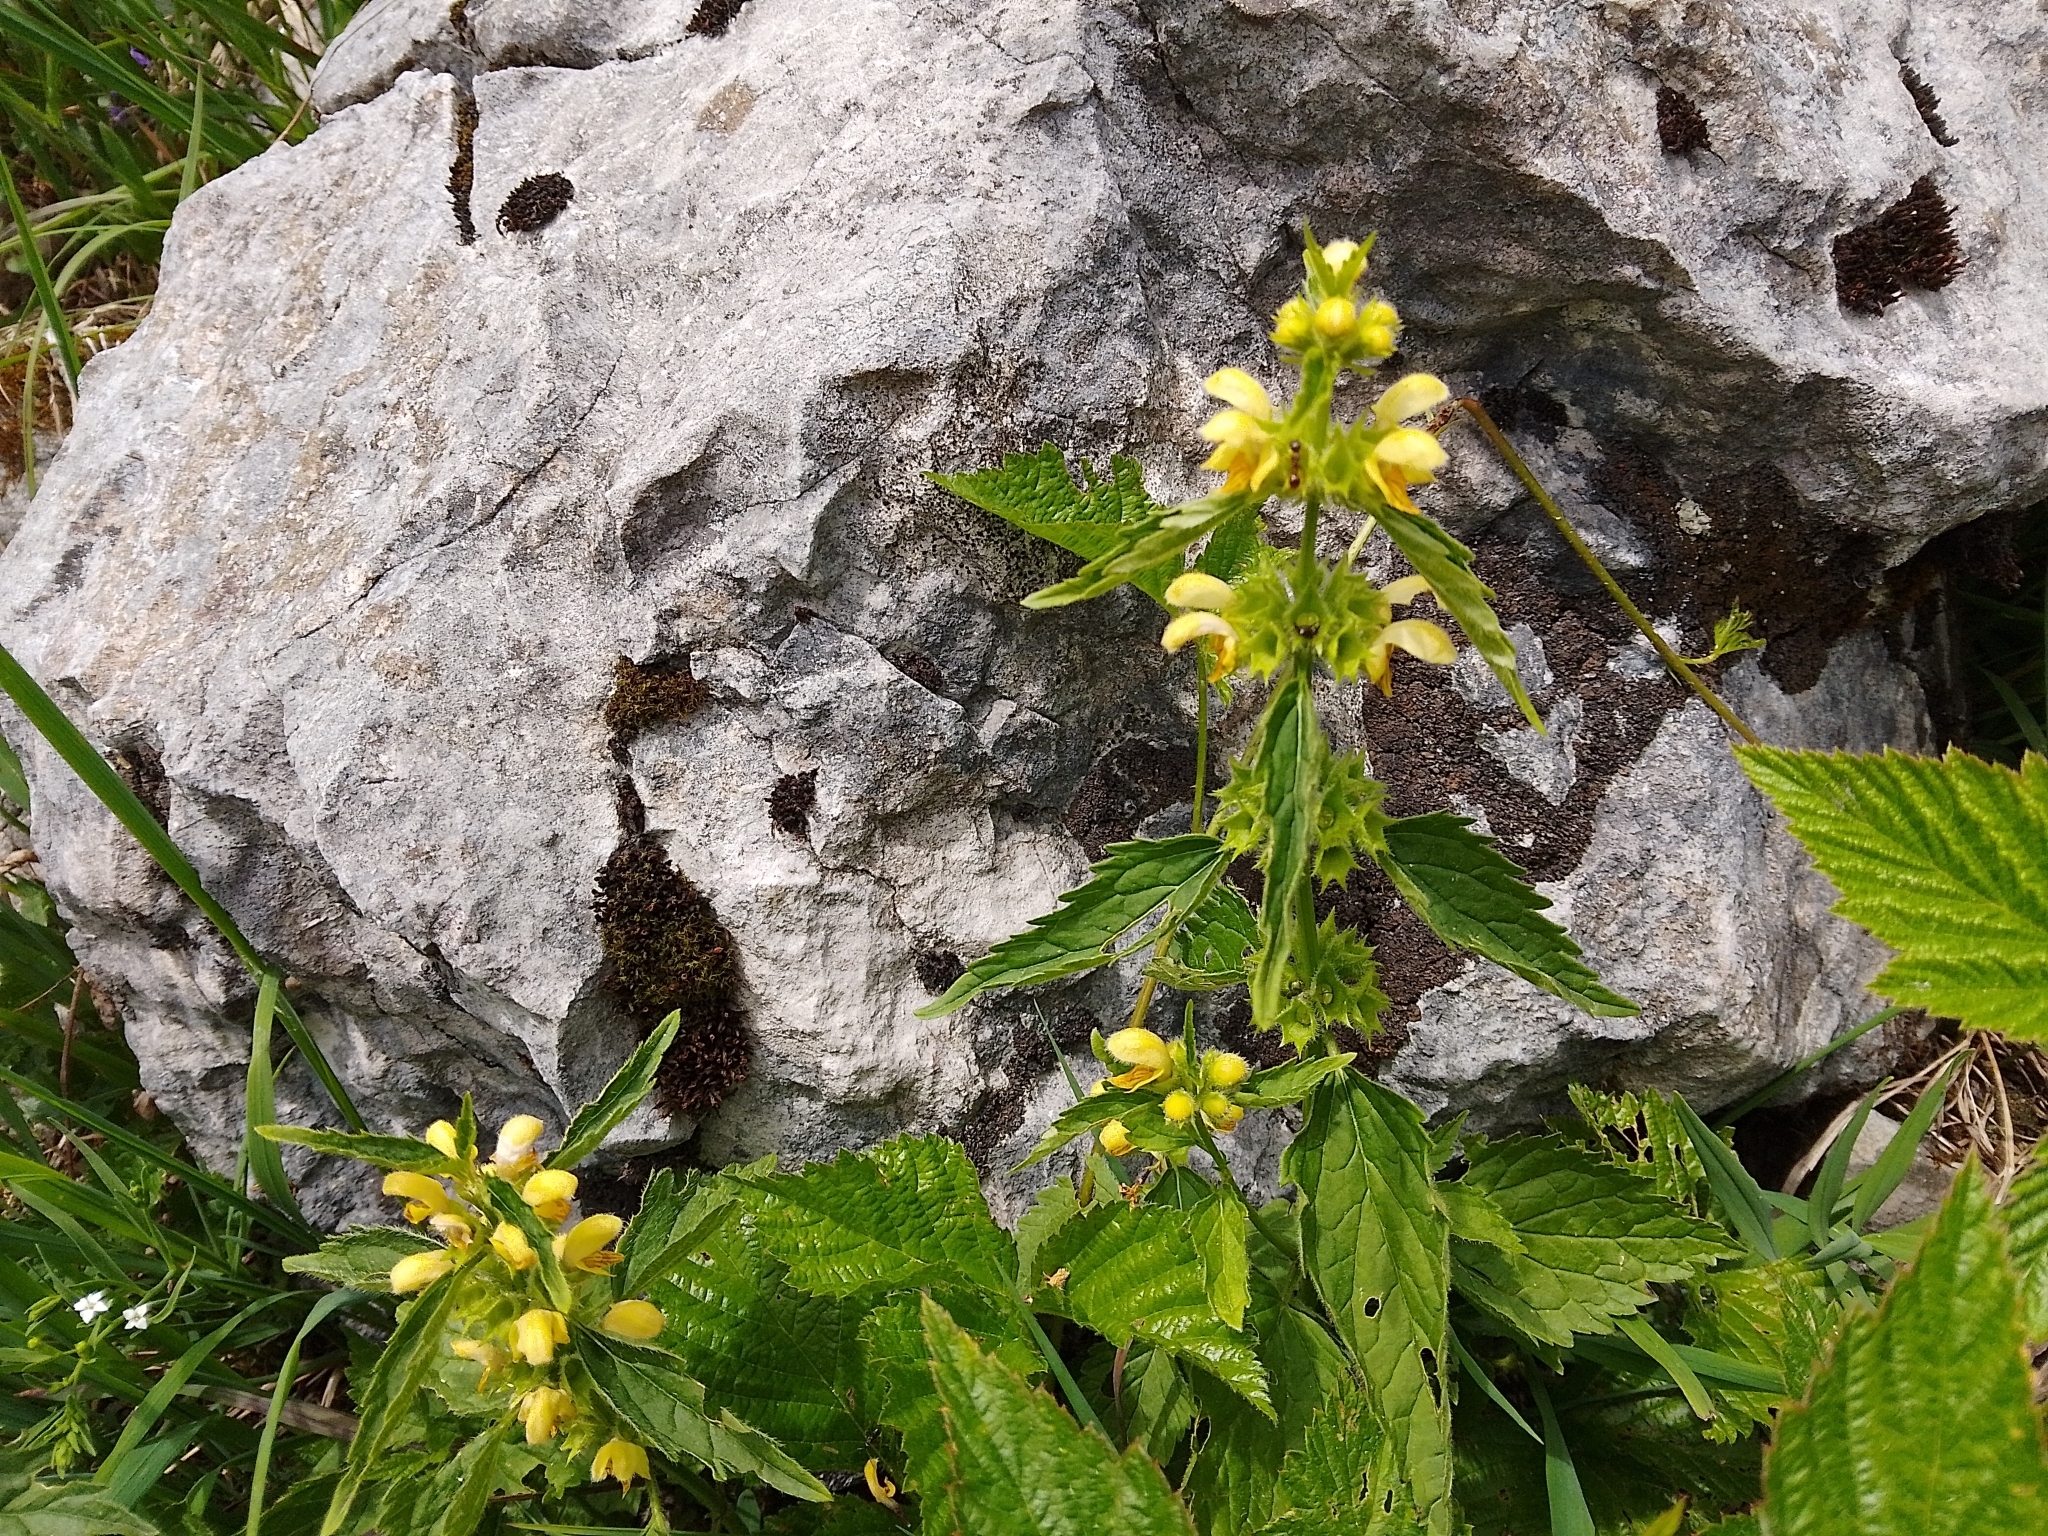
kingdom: Plantae
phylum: Tracheophyta
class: Magnoliopsida
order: Lamiales
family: Lamiaceae
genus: Lamium
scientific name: Lamium galeobdolon
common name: Yellow archangel
